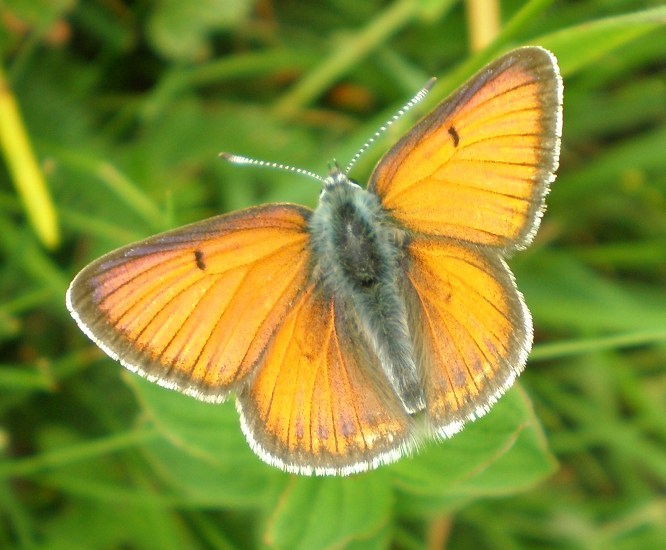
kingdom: Animalia
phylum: Arthropoda
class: Insecta
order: Lepidoptera
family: Lycaenidae
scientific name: Lycaenidae
